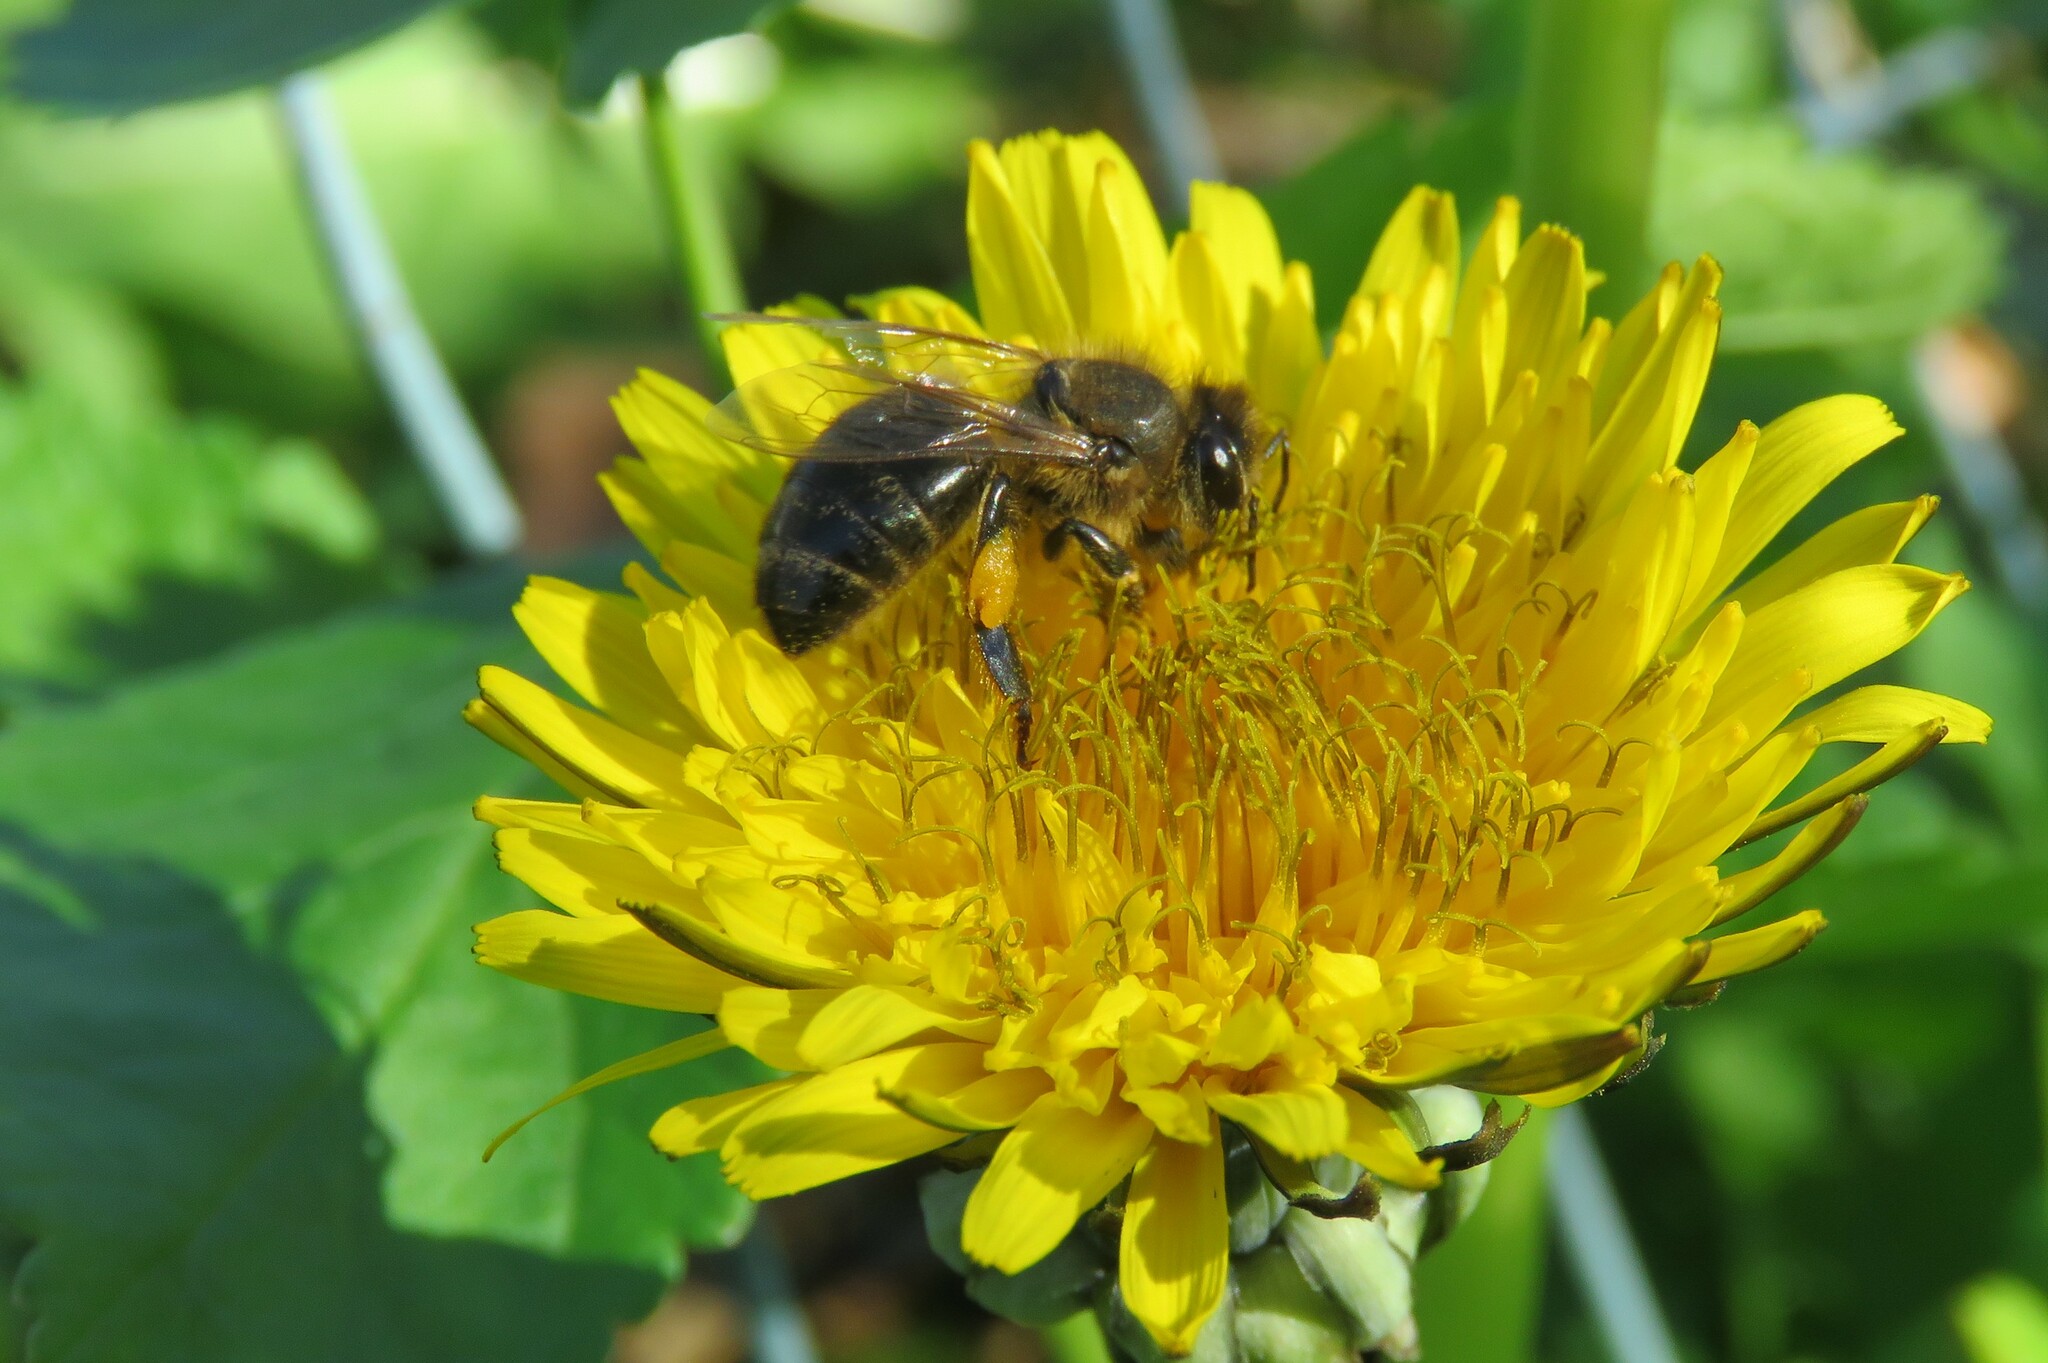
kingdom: Animalia
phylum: Arthropoda
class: Insecta
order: Hymenoptera
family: Apidae
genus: Apis
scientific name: Apis mellifera
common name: Honey bee
